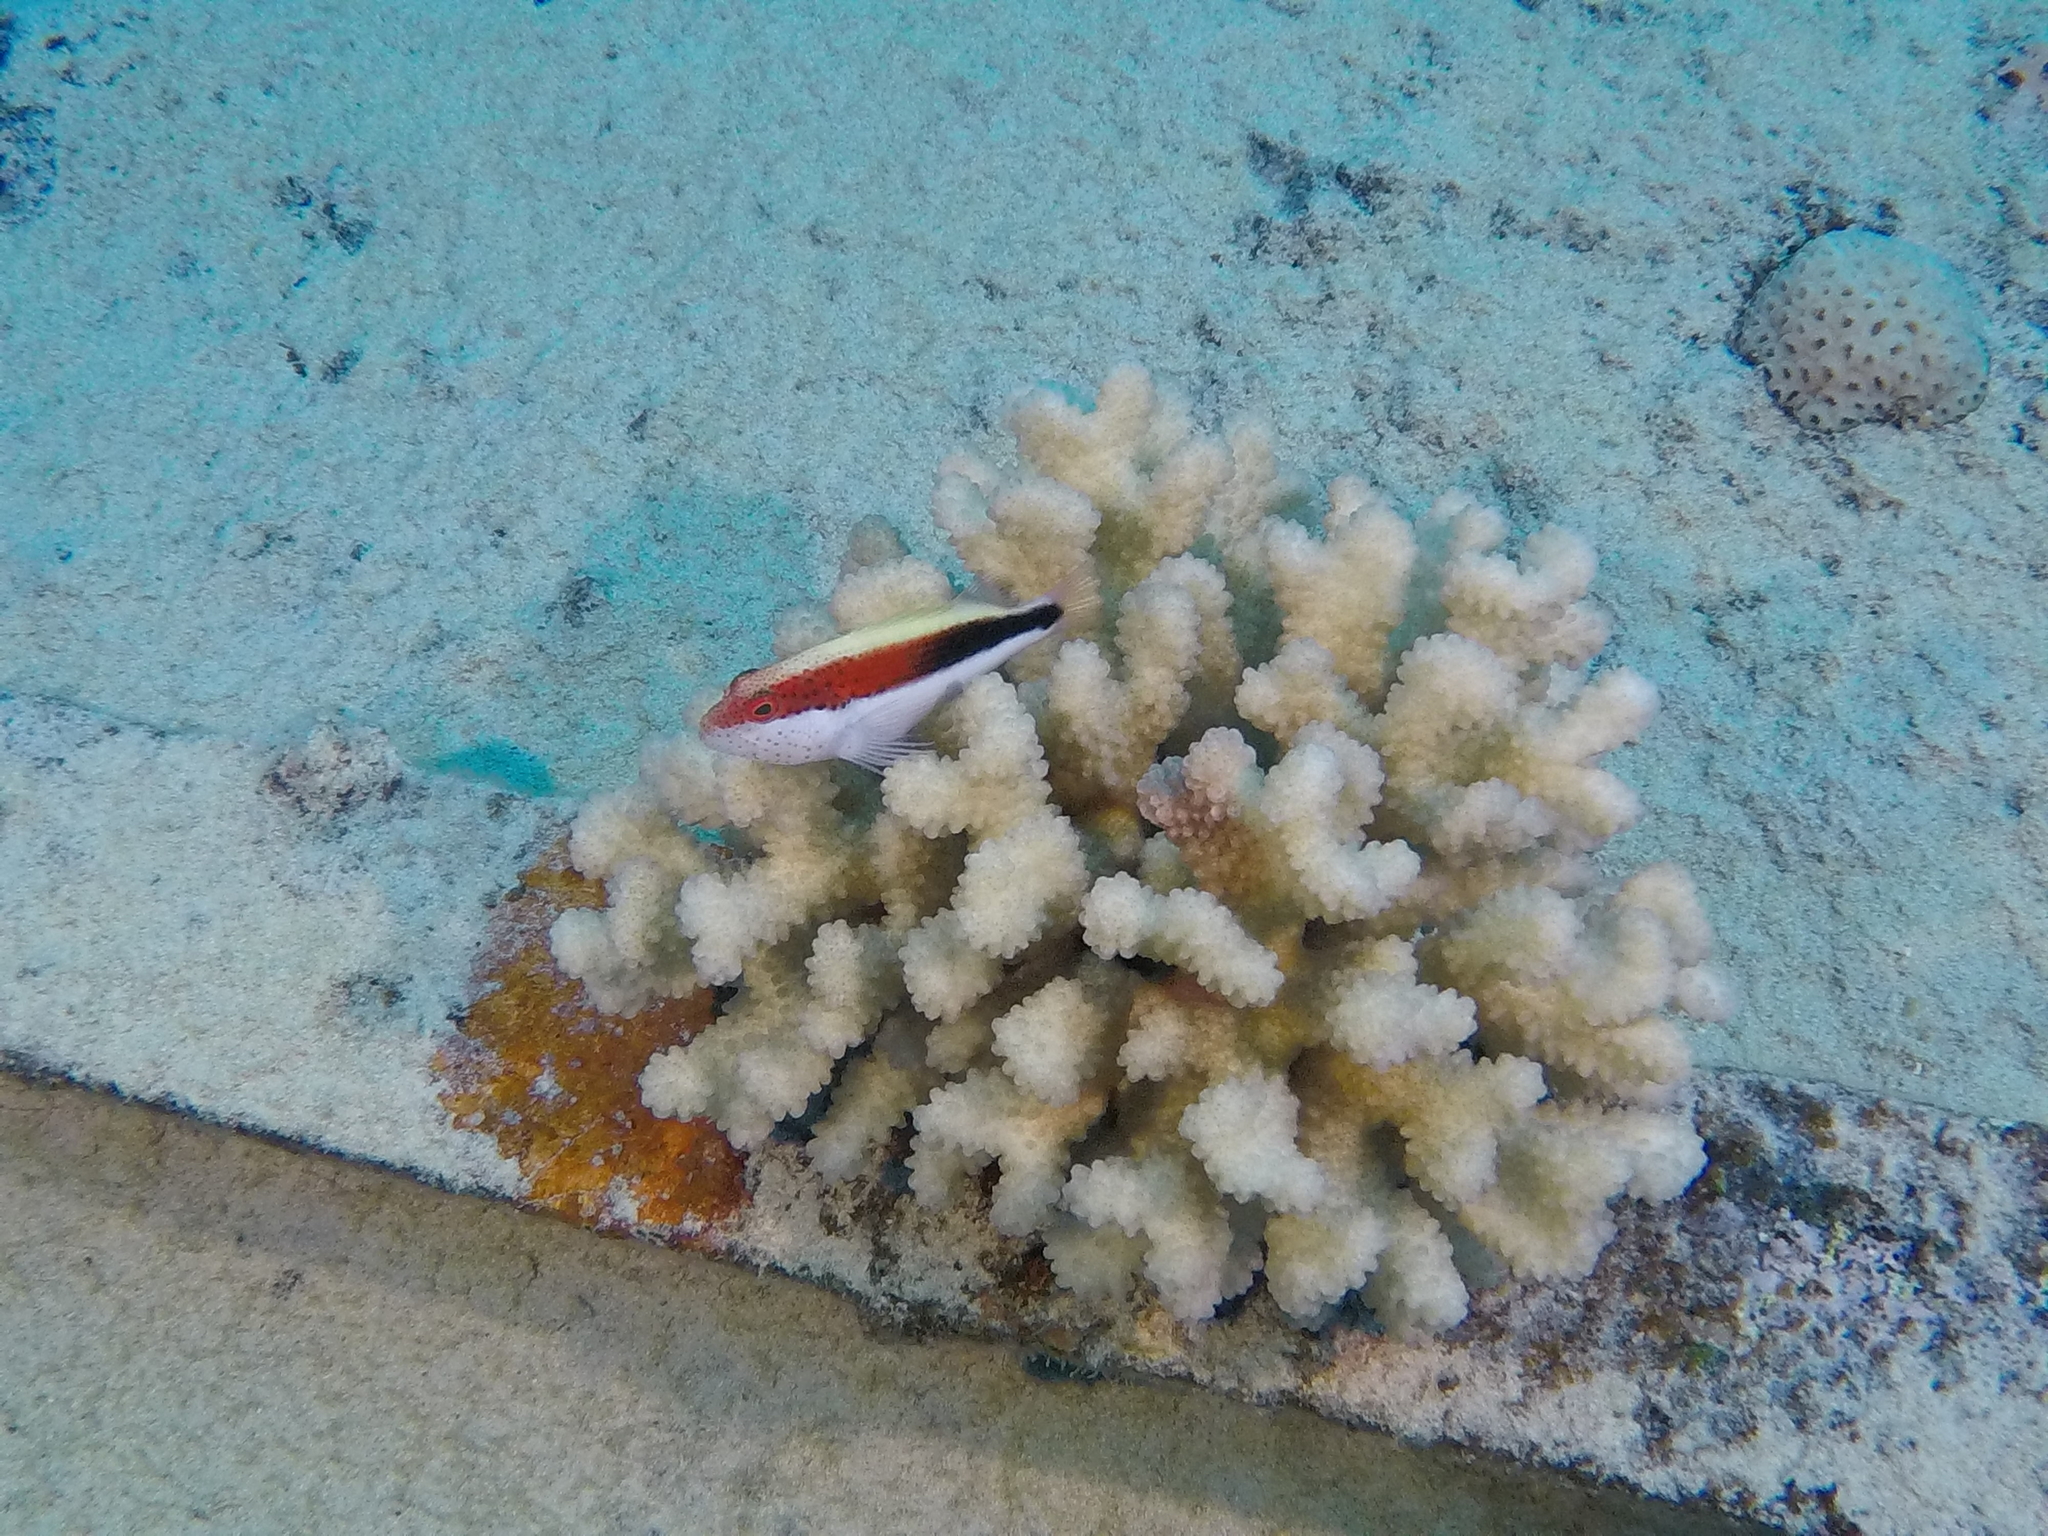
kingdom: Animalia
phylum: Chordata
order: Perciformes
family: Cirrhitidae
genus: Paracirrhites
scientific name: Paracirrhites forsteri
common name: Freckled hawkfish
